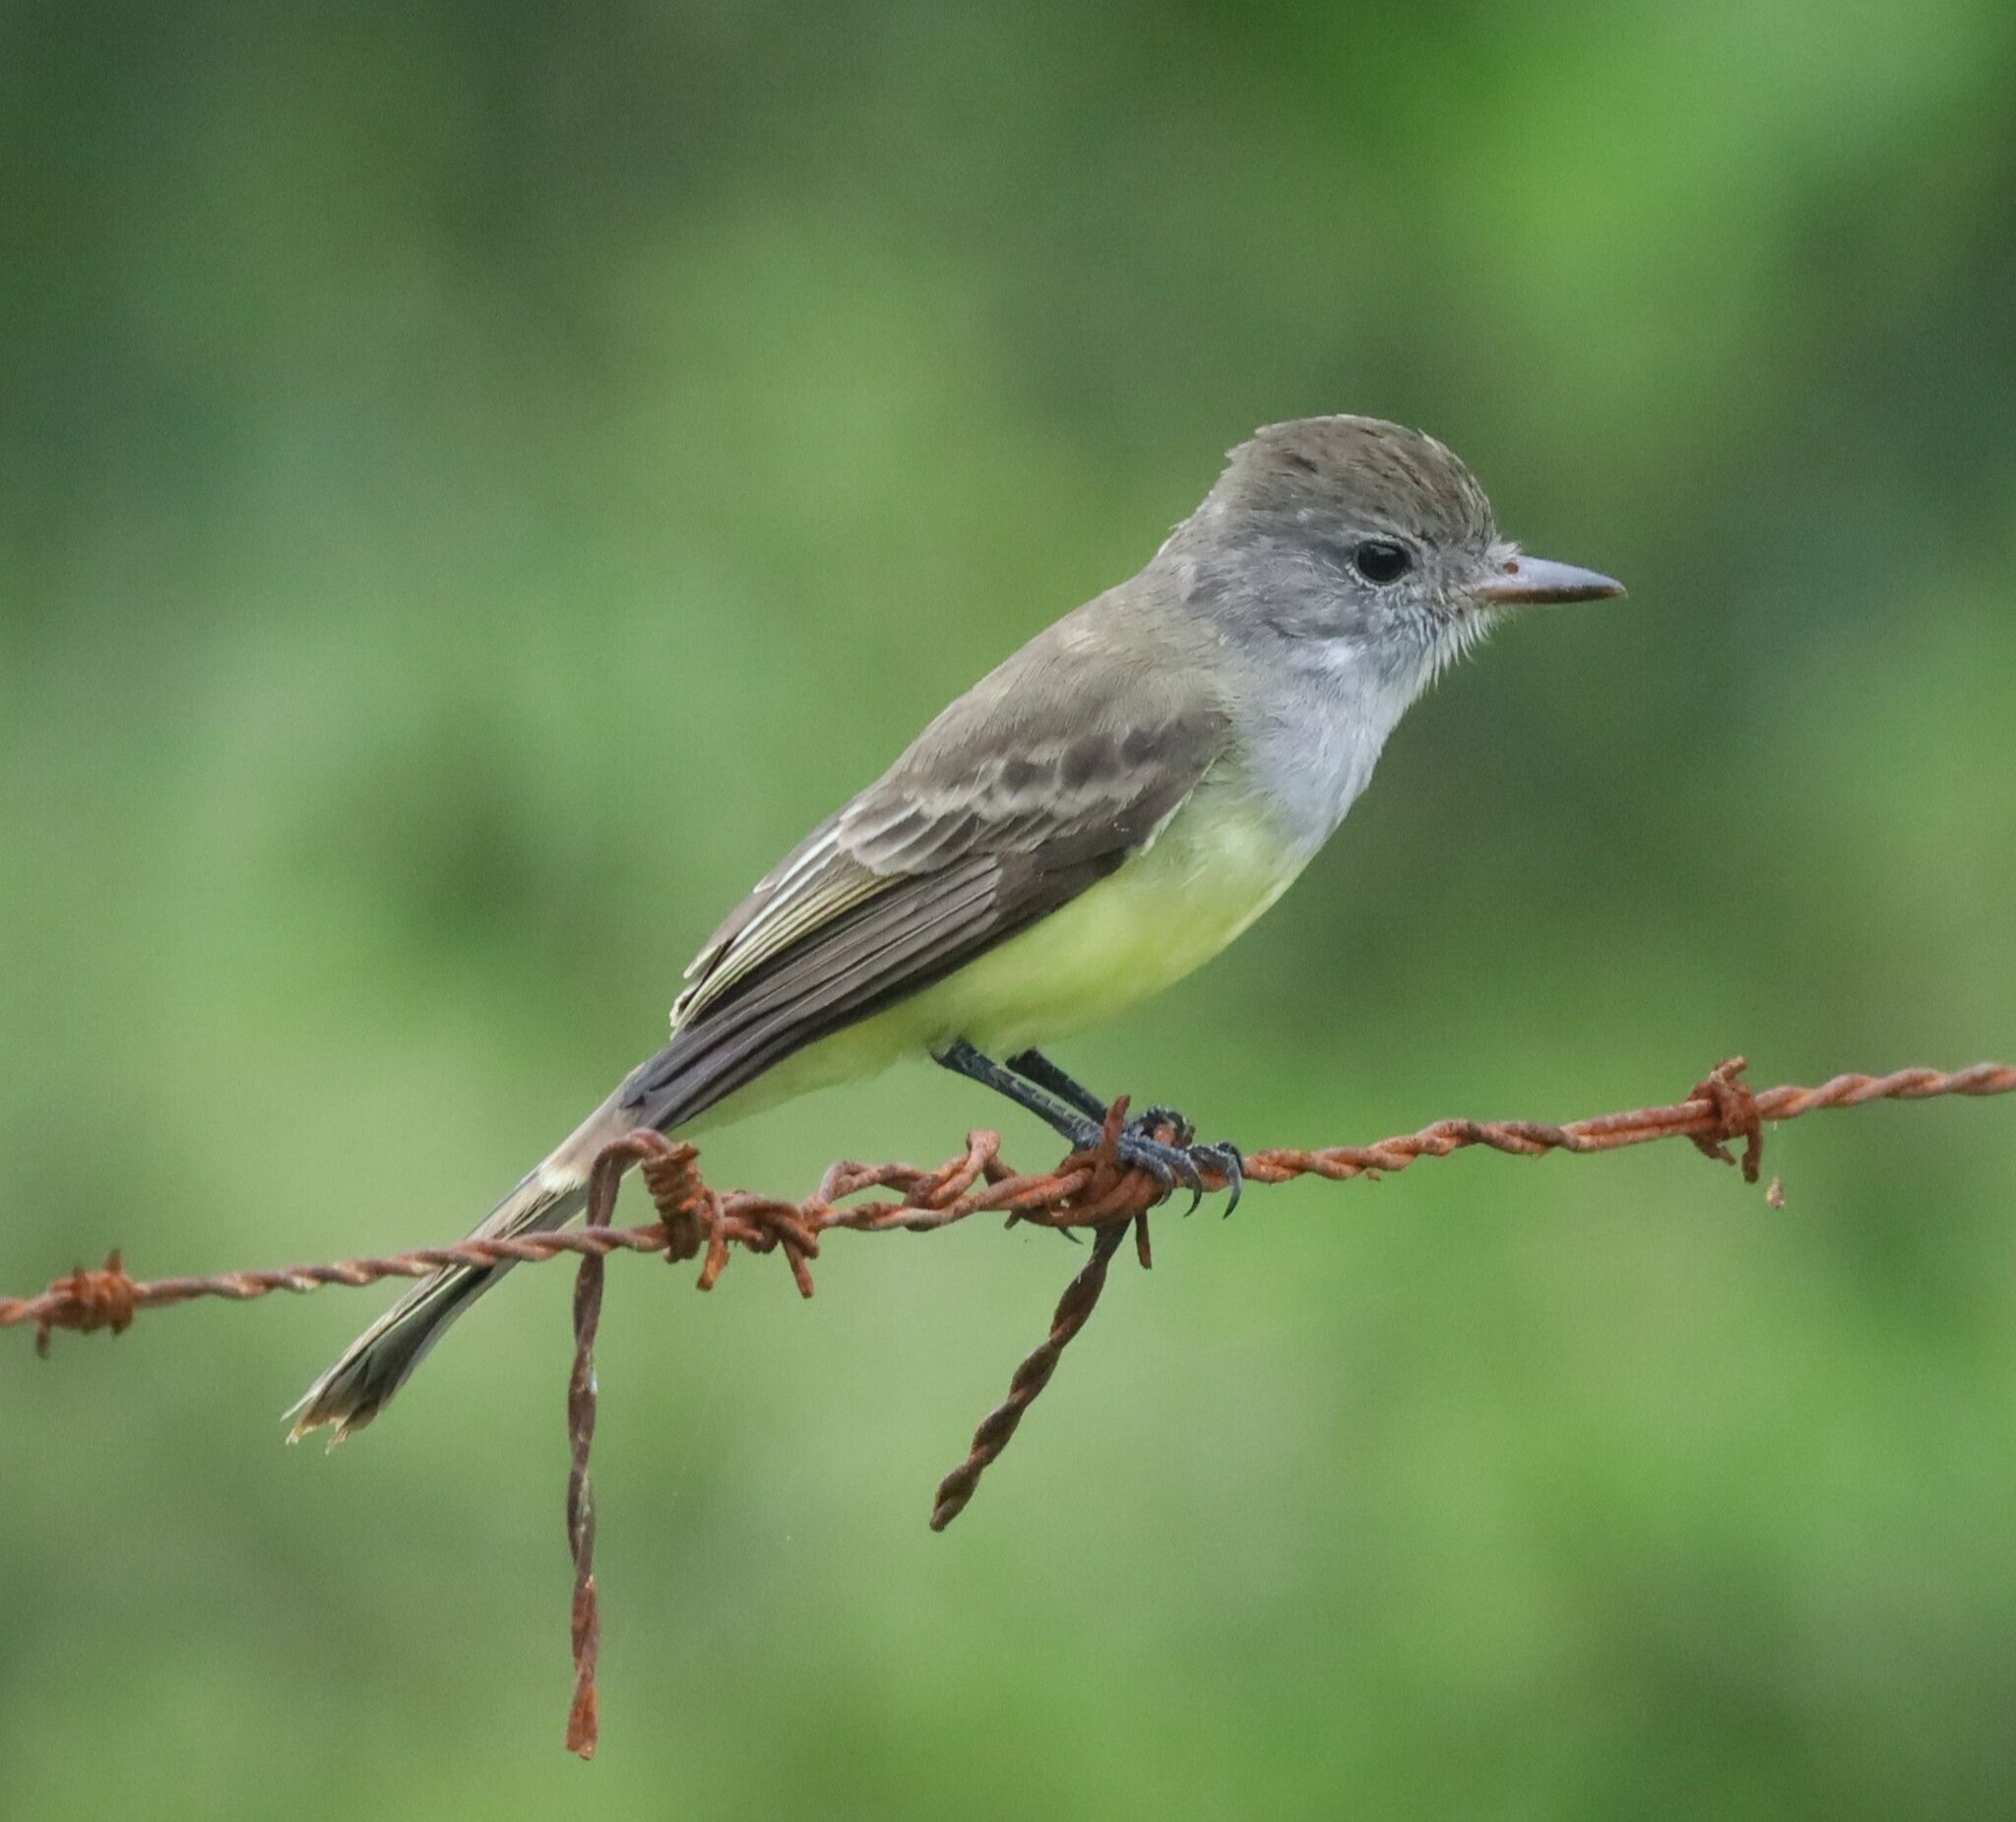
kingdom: Animalia
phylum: Chordata
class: Aves
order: Passeriformes
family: Tyrannidae
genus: Myiarchus
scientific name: Myiarchus panamensis
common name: Panama flycatcher
